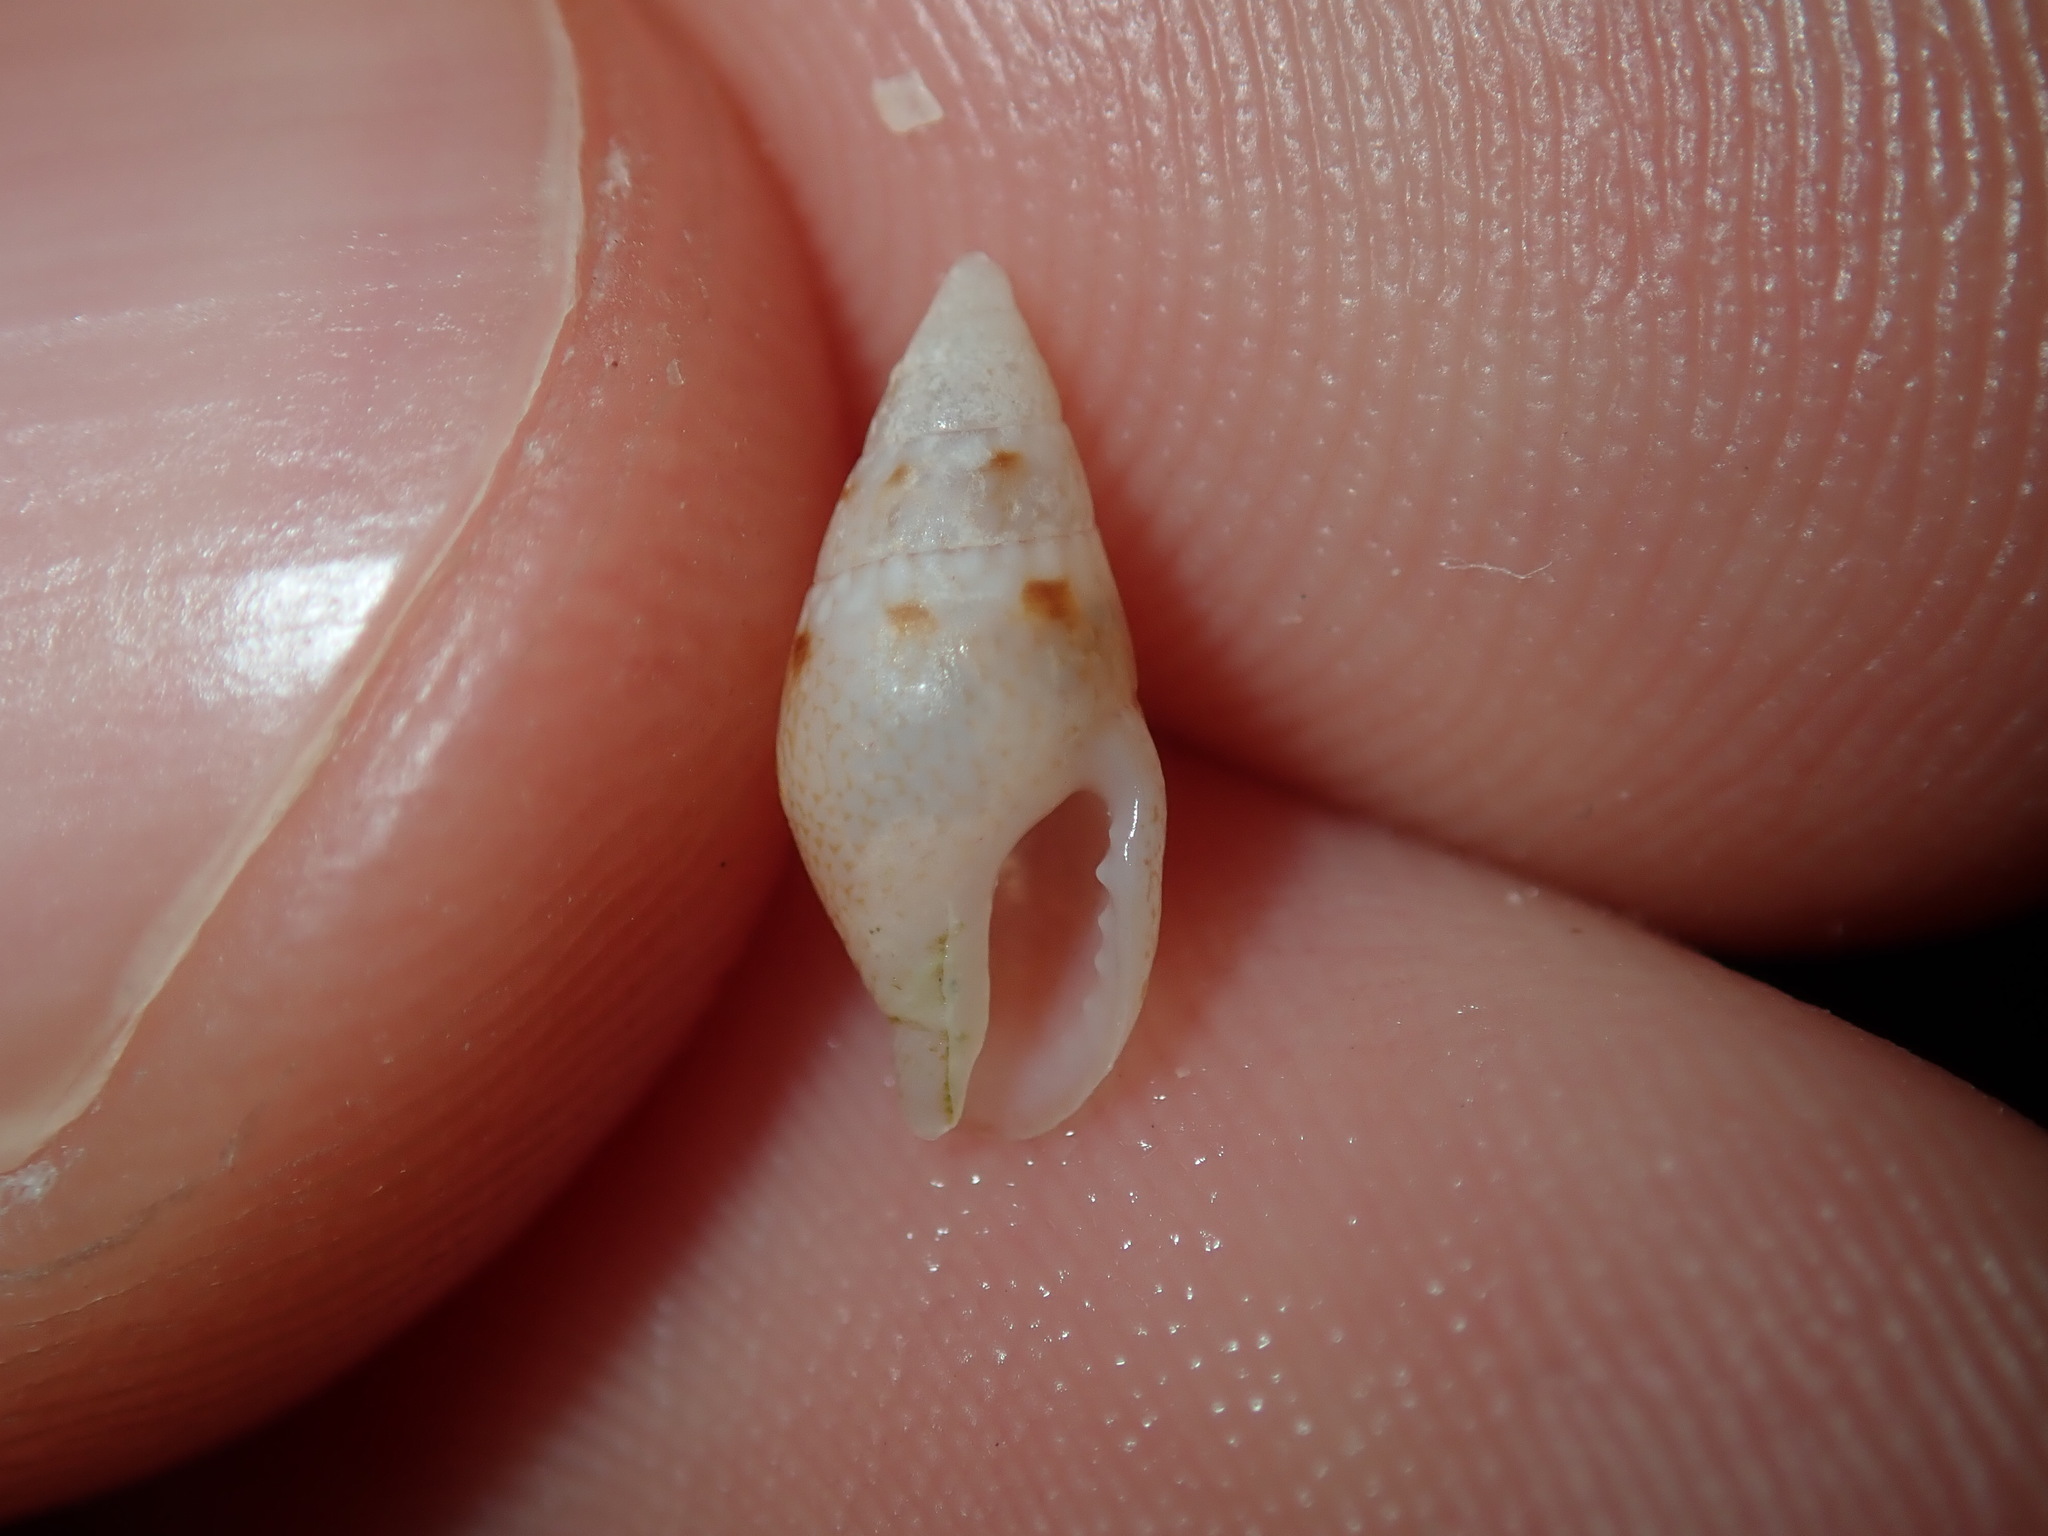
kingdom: Animalia
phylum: Mollusca
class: Gastropoda
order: Neogastropoda
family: Columbellidae
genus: Mitrella
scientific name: Mitrella tayloriana
